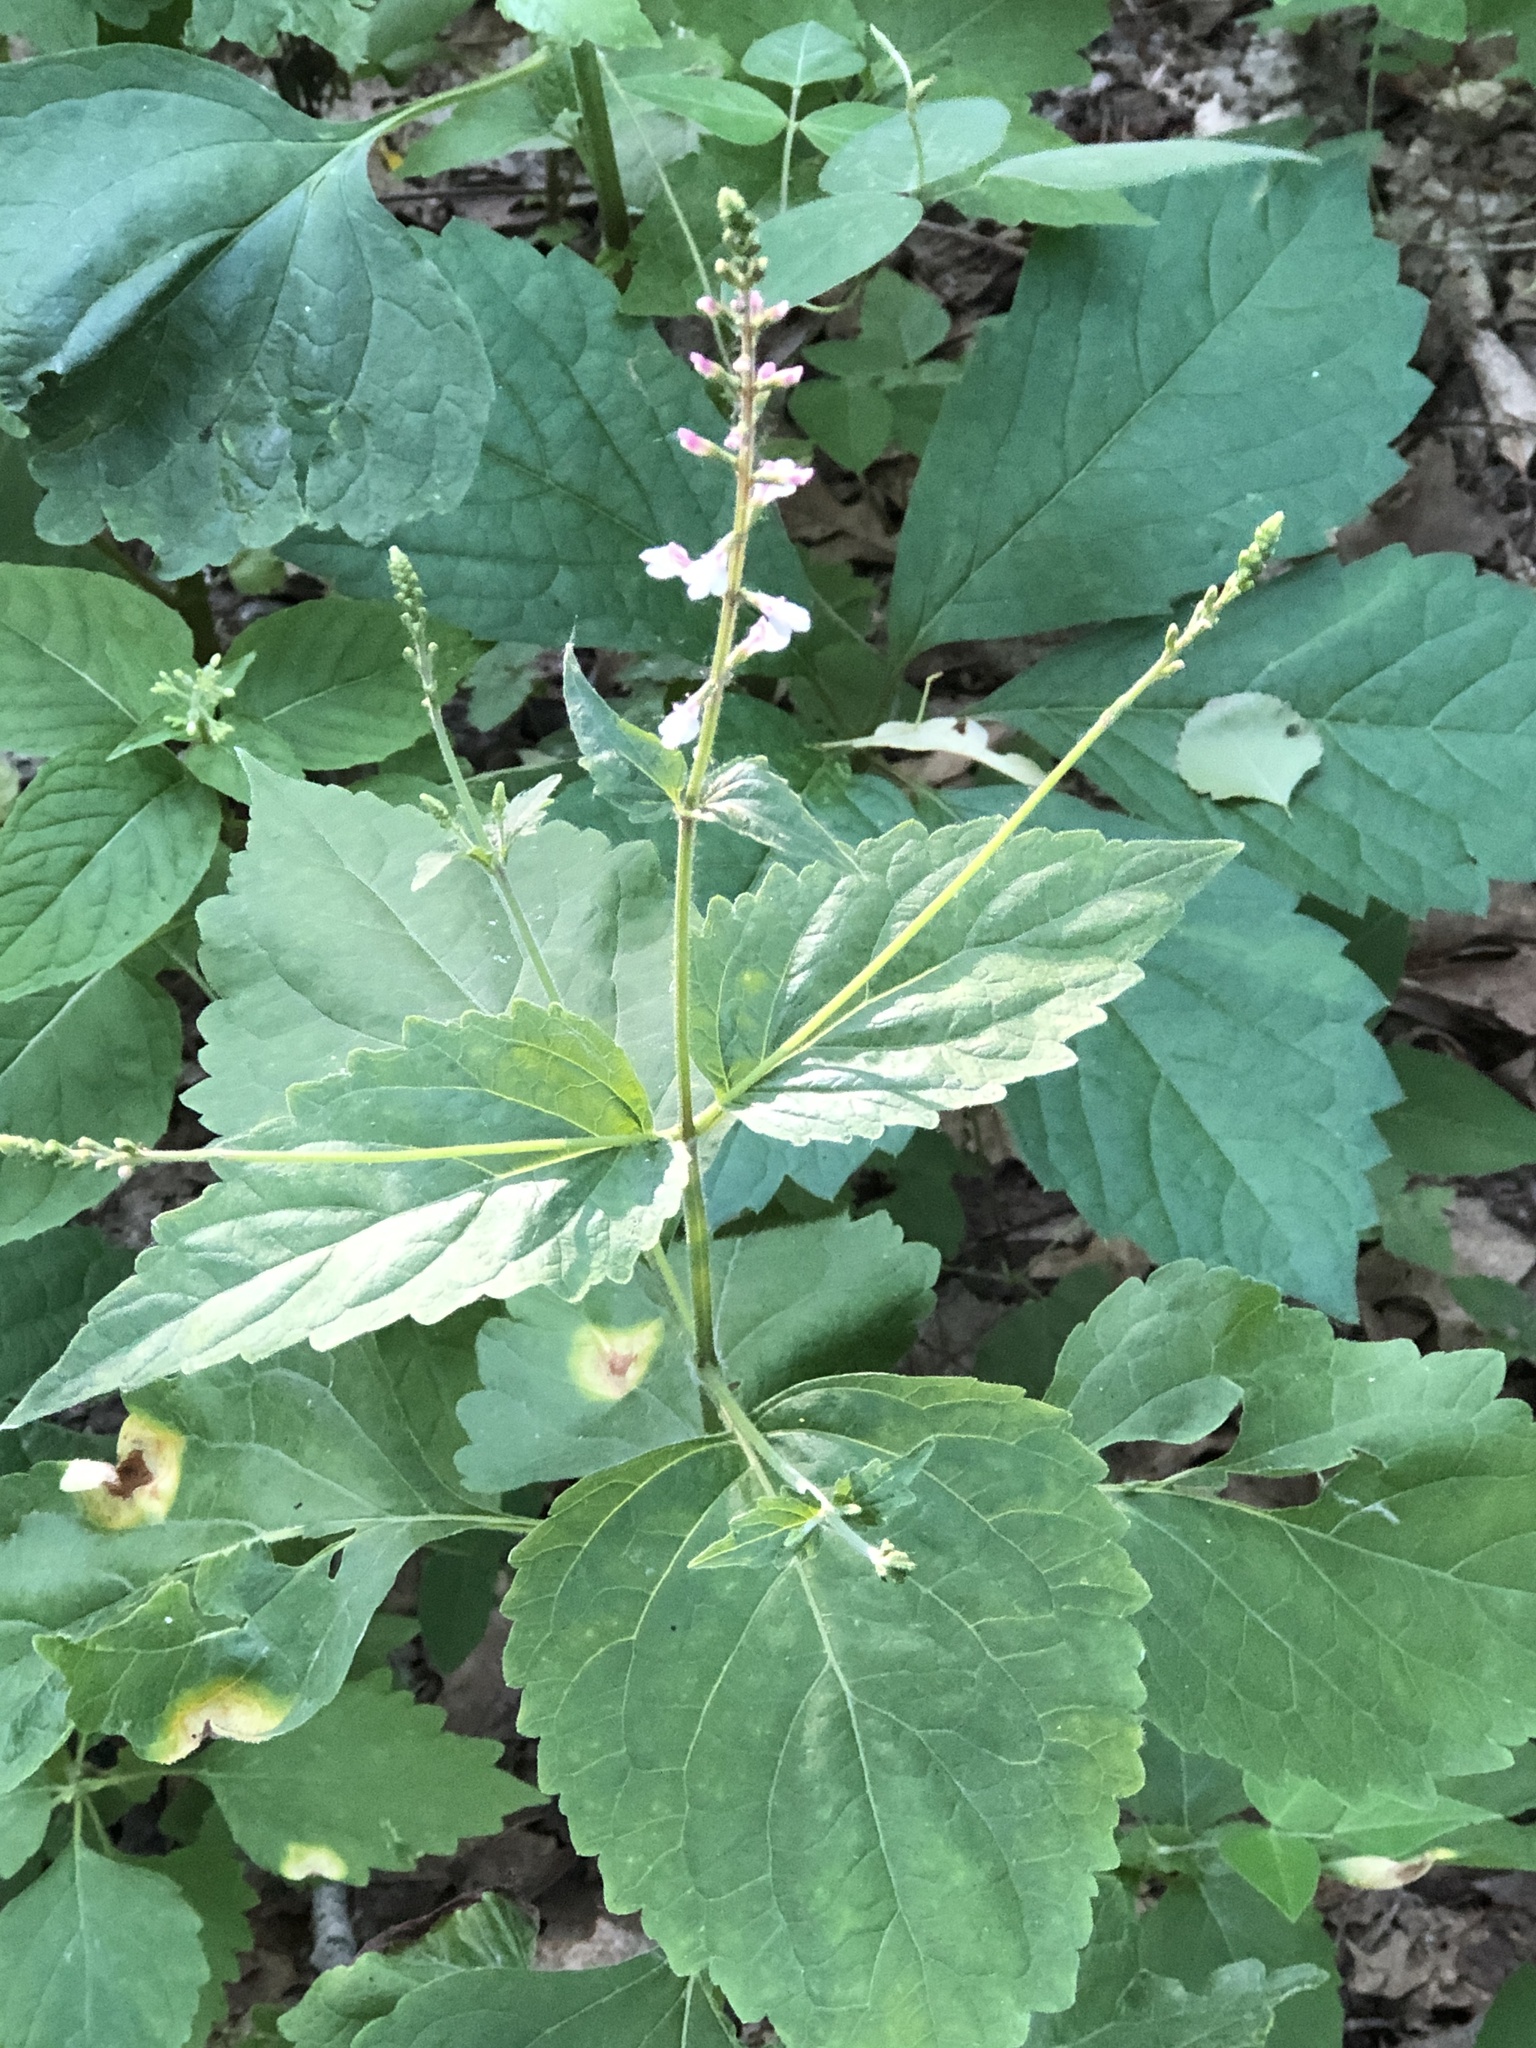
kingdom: Plantae
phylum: Tracheophyta
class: Magnoliopsida
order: Lamiales
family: Phrymaceae
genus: Phryma
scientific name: Phryma leptostachya
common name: American lopseed
